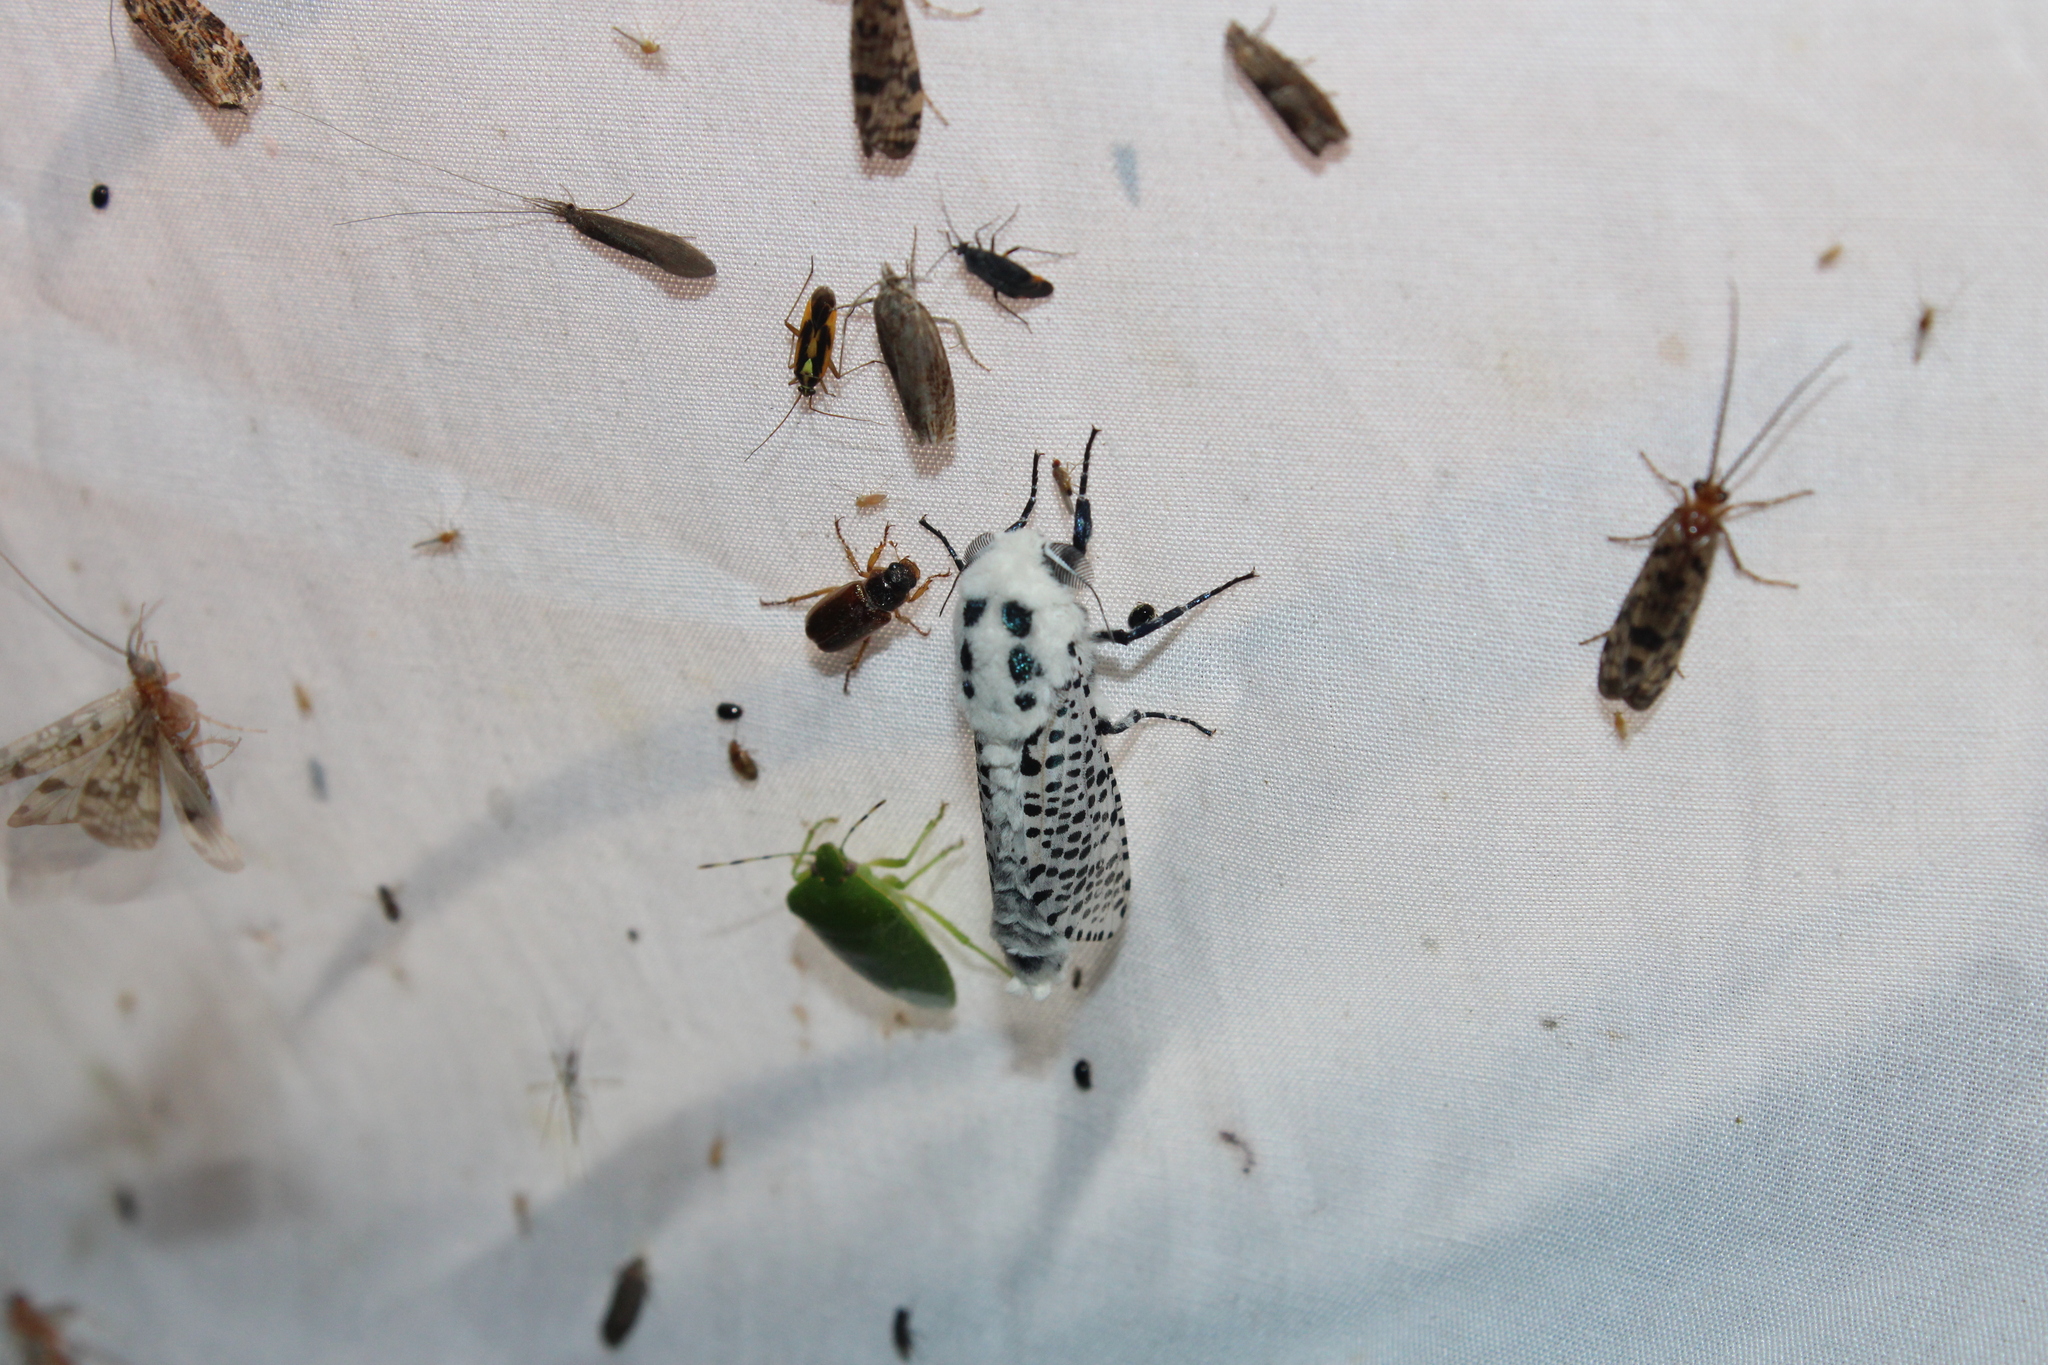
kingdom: Animalia
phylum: Arthropoda
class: Insecta
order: Lepidoptera
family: Cossidae
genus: Zeuzera
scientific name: Zeuzera pyrina
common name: Leopard moth
